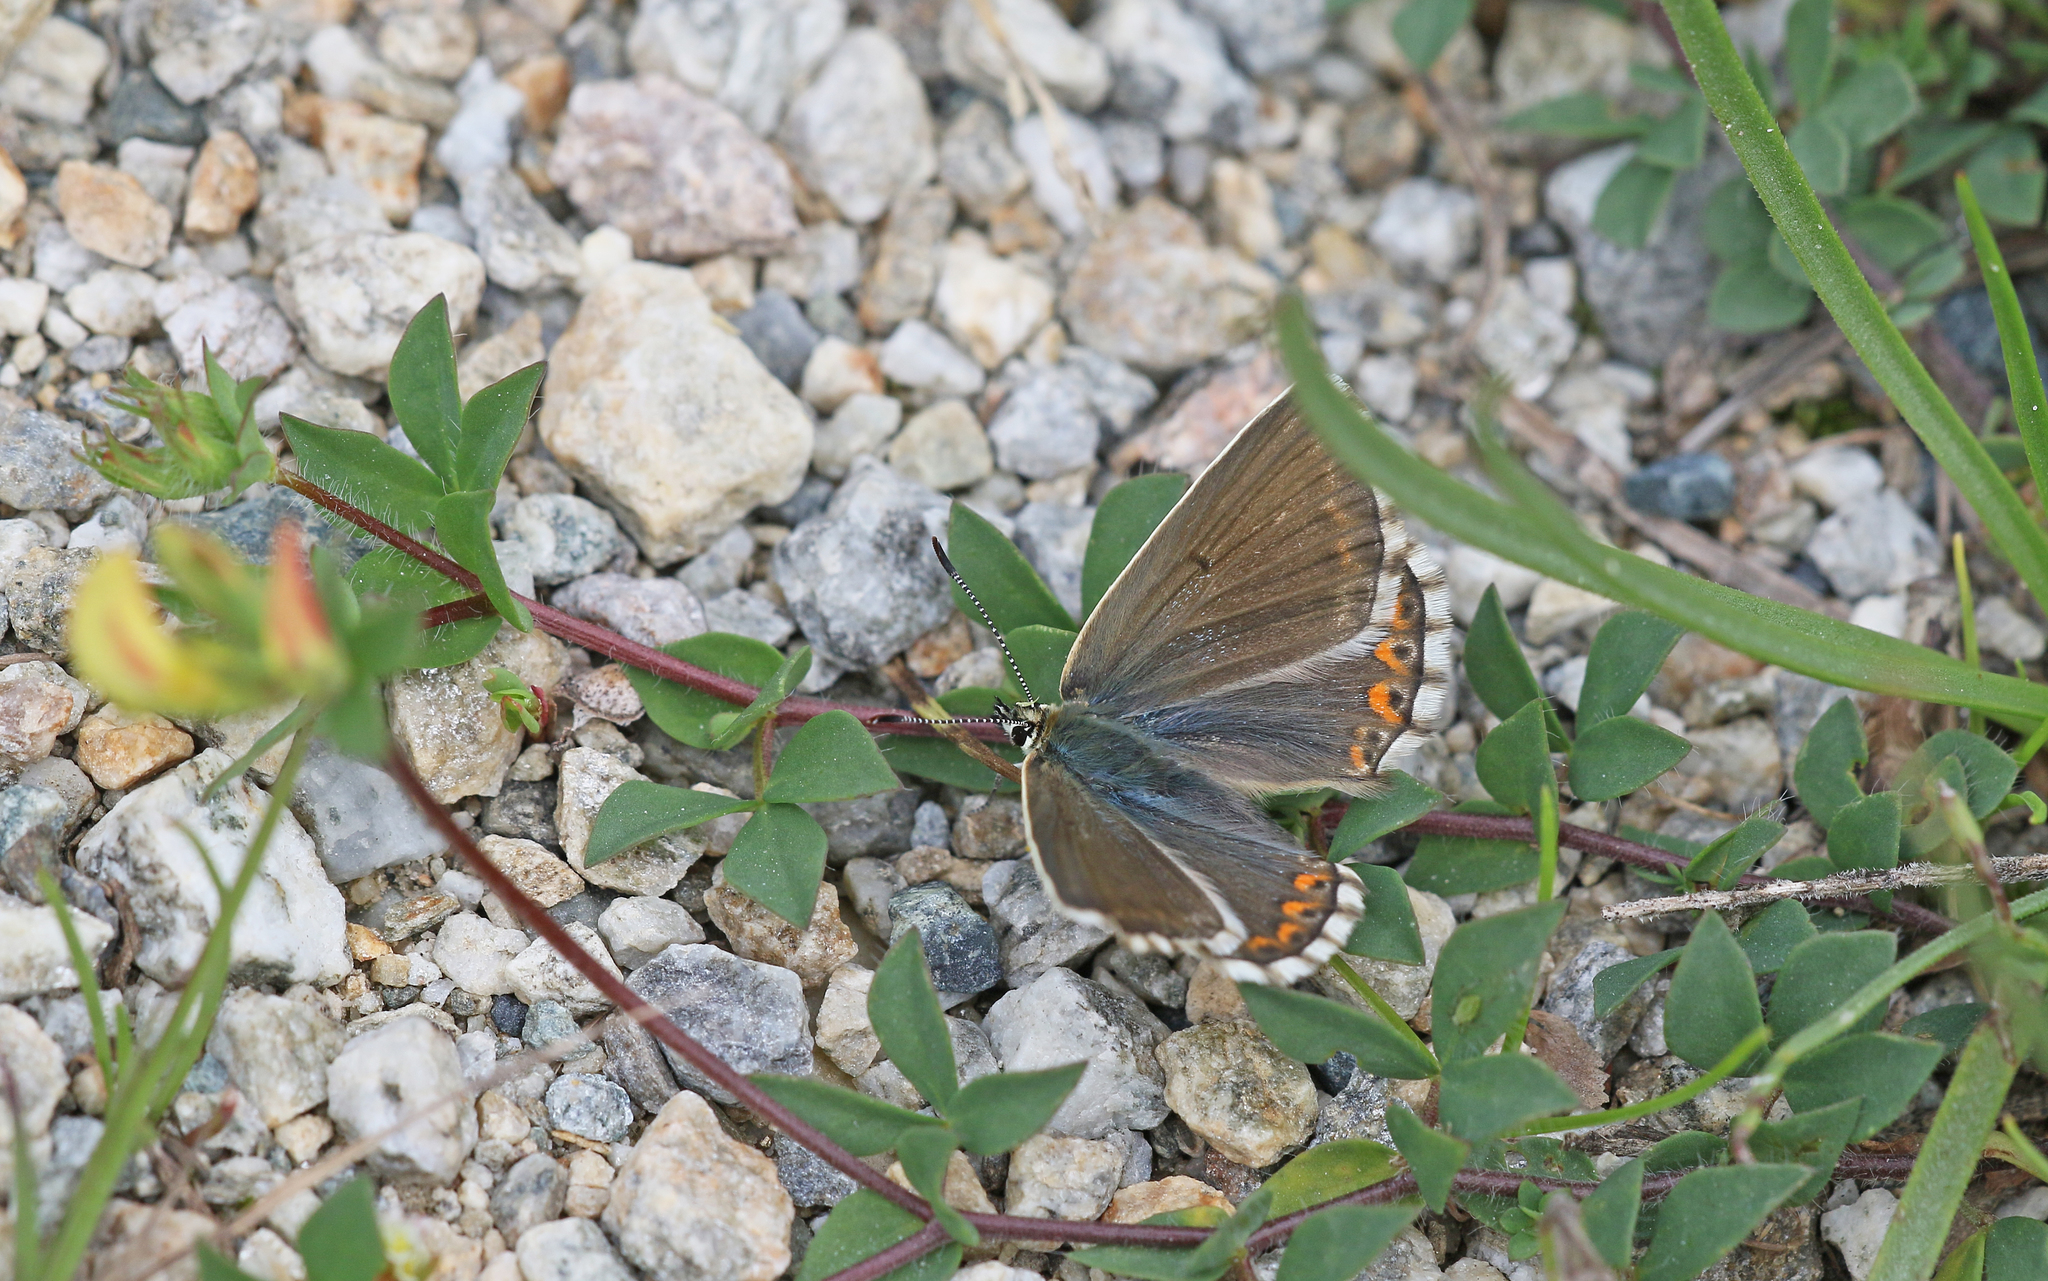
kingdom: Animalia
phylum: Arthropoda
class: Insecta
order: Lepidoptera
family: Lycaenidae
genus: Lysandra
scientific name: Lysandra bellargus
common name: Adonis blue
